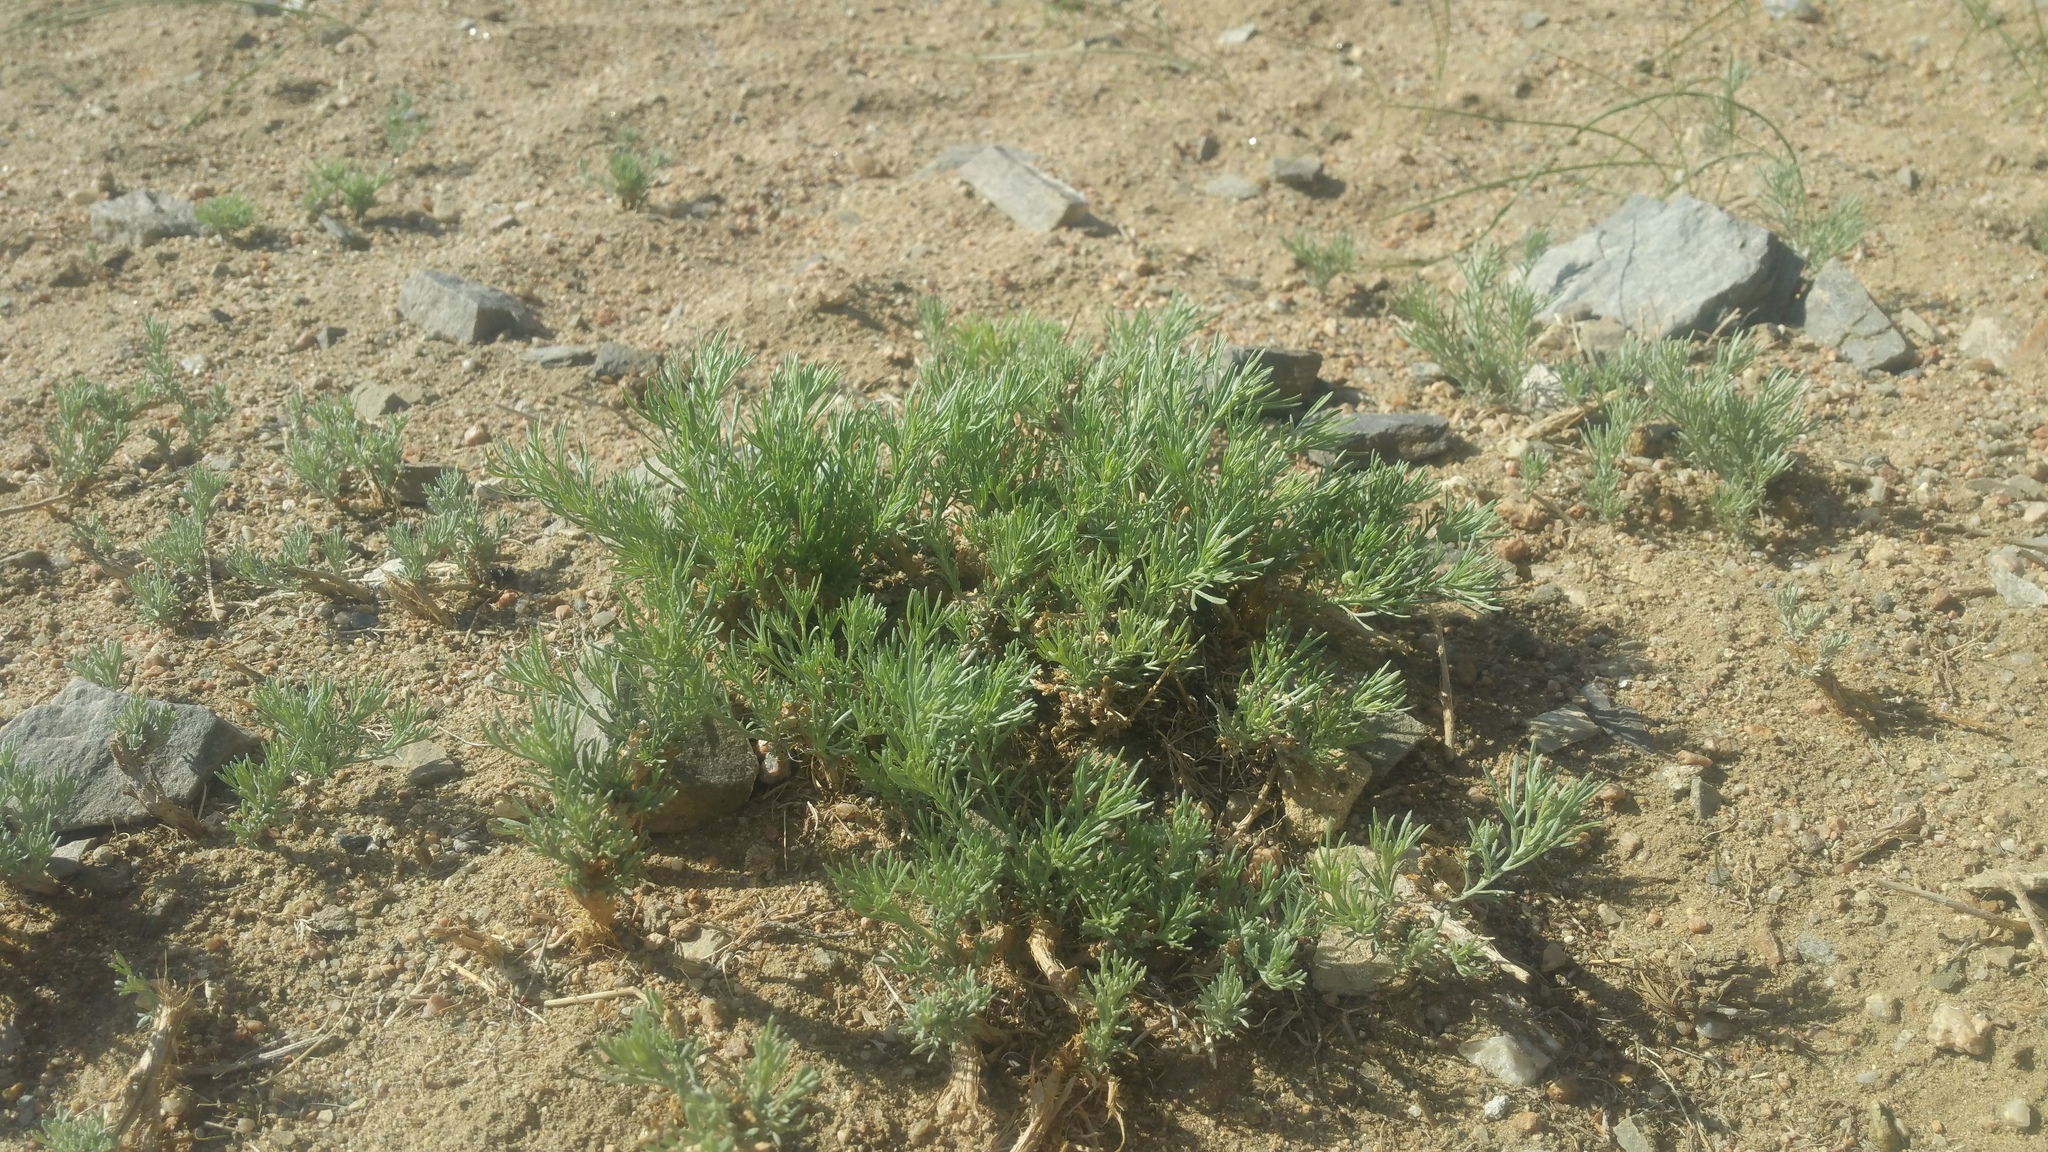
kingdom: Plantae
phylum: Tracheophyta
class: Magnoliopsida
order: Caryophyllales
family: Amaranthaceae
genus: Krascheninnikovia
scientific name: Krascheninnikovia ceratoides
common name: Pamirian winterfat
